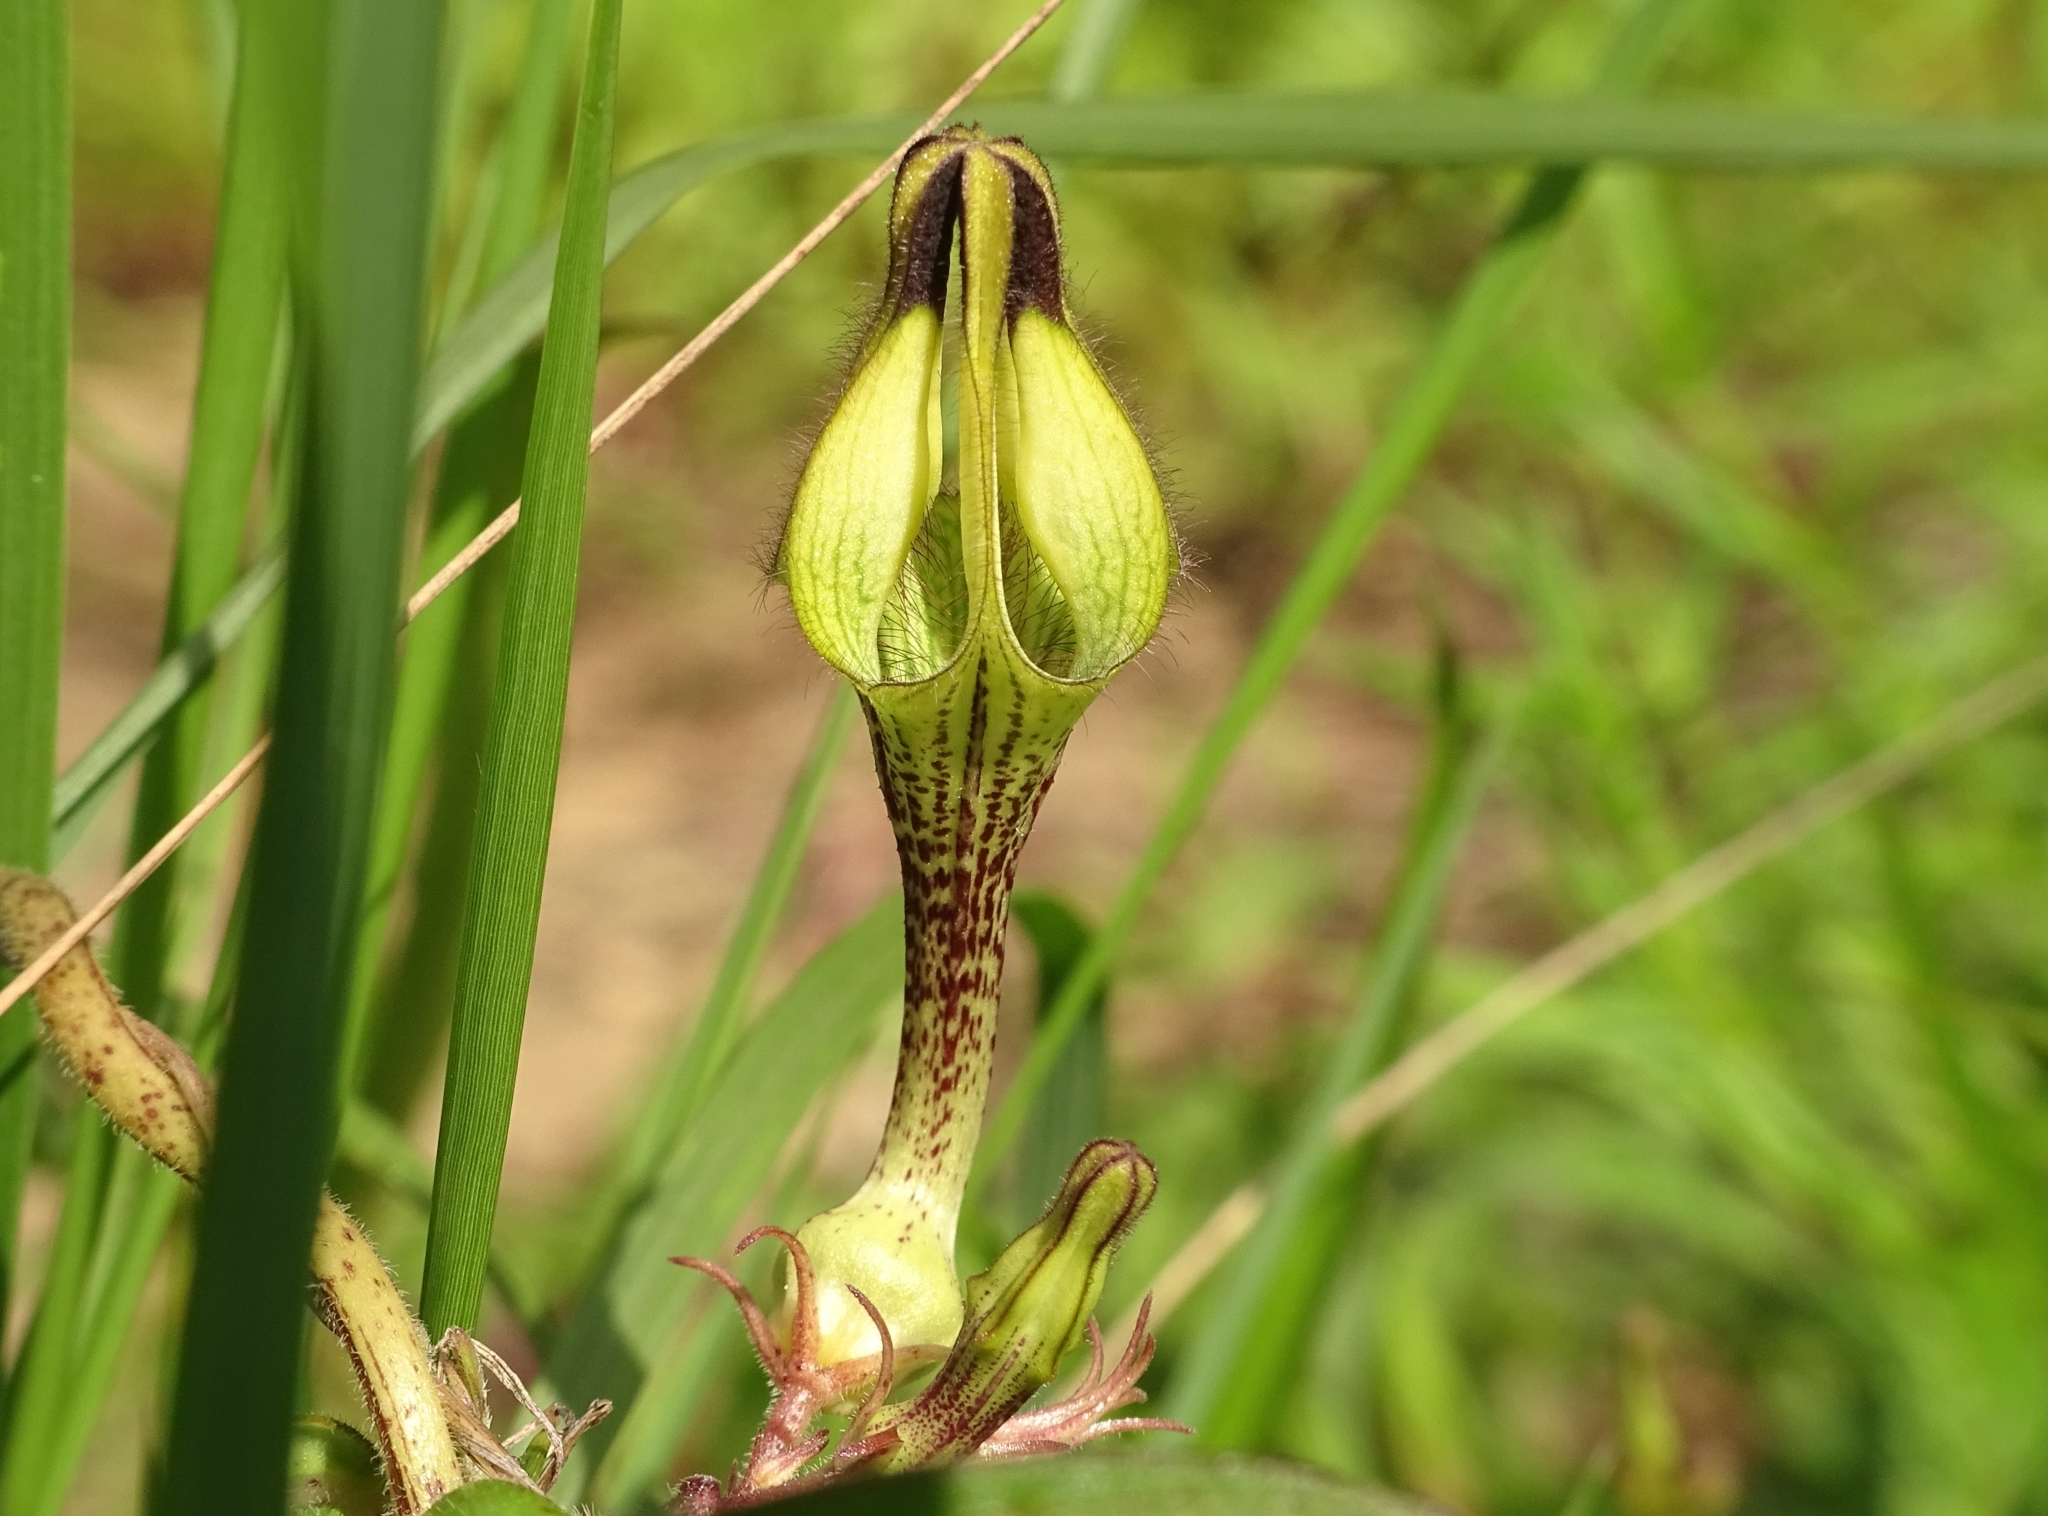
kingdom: Plantae
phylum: Tracheophyta
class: Magnoliopsida
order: Gentianales
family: Apocynaceae
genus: Ceropegia
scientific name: Ceropegia hirsuta
